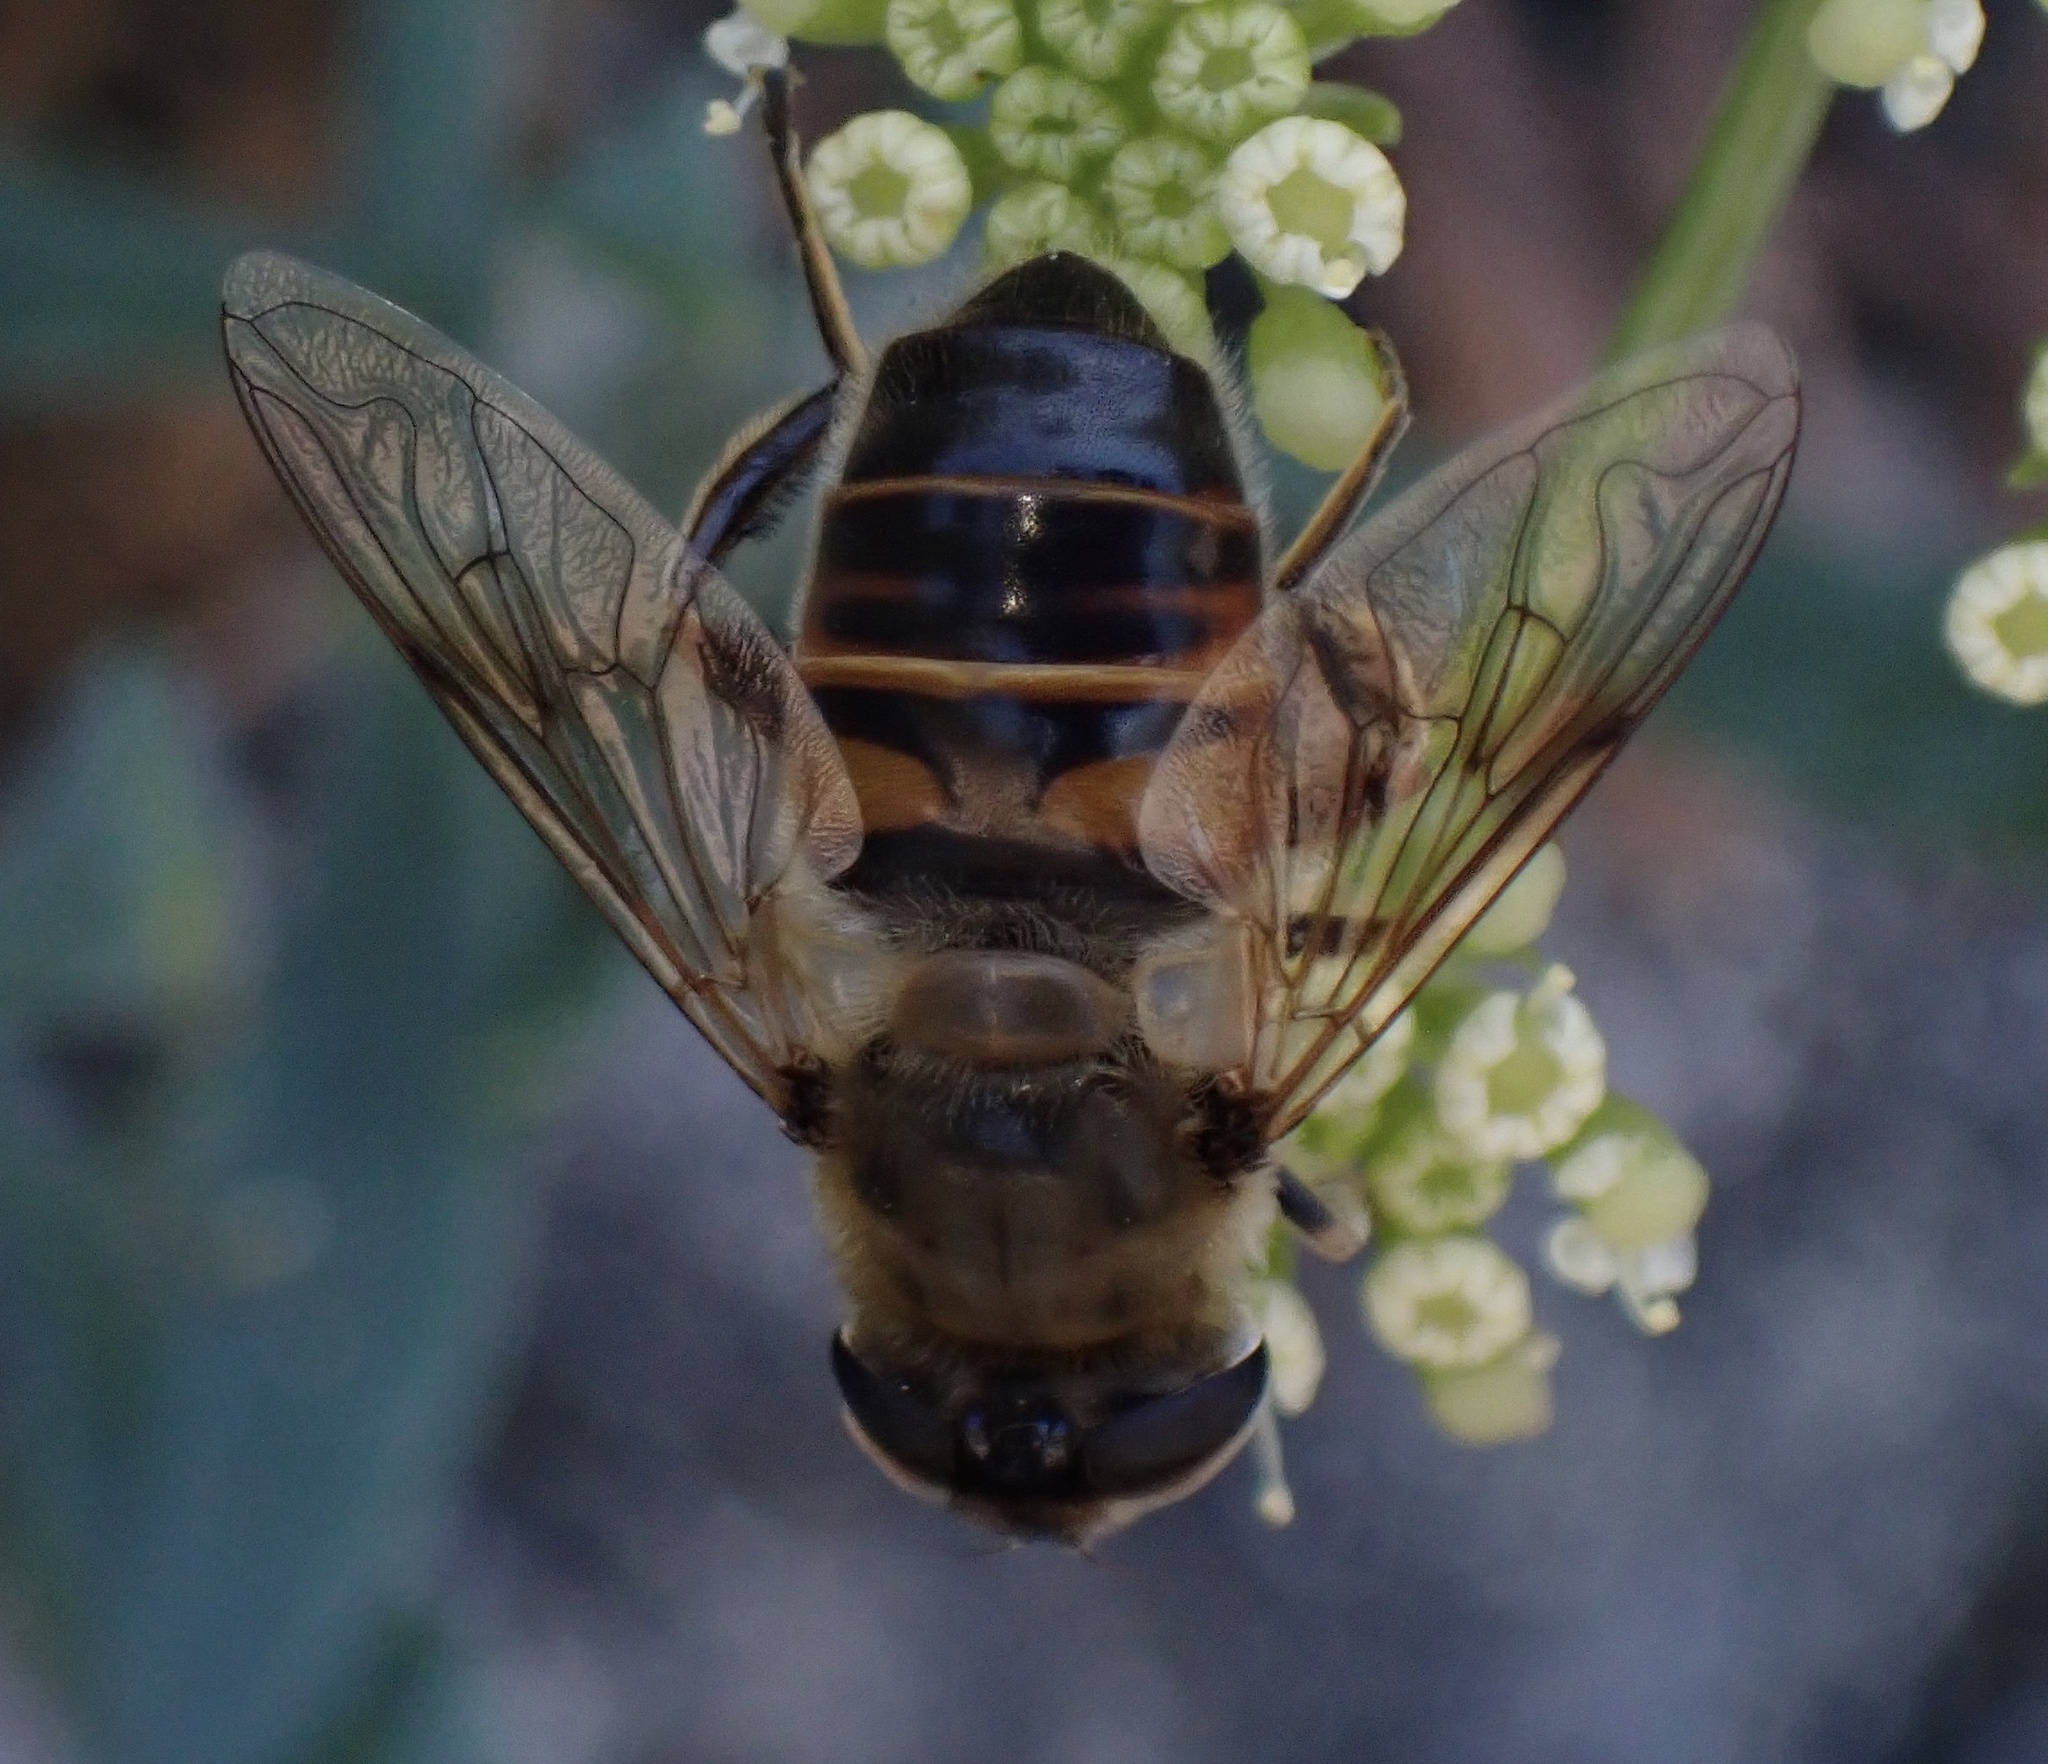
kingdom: Animalia
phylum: Arthropoda
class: Insecta
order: Diptera
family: Syrphidae
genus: Eristalis
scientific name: Eristalis tenax
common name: Drone fly
